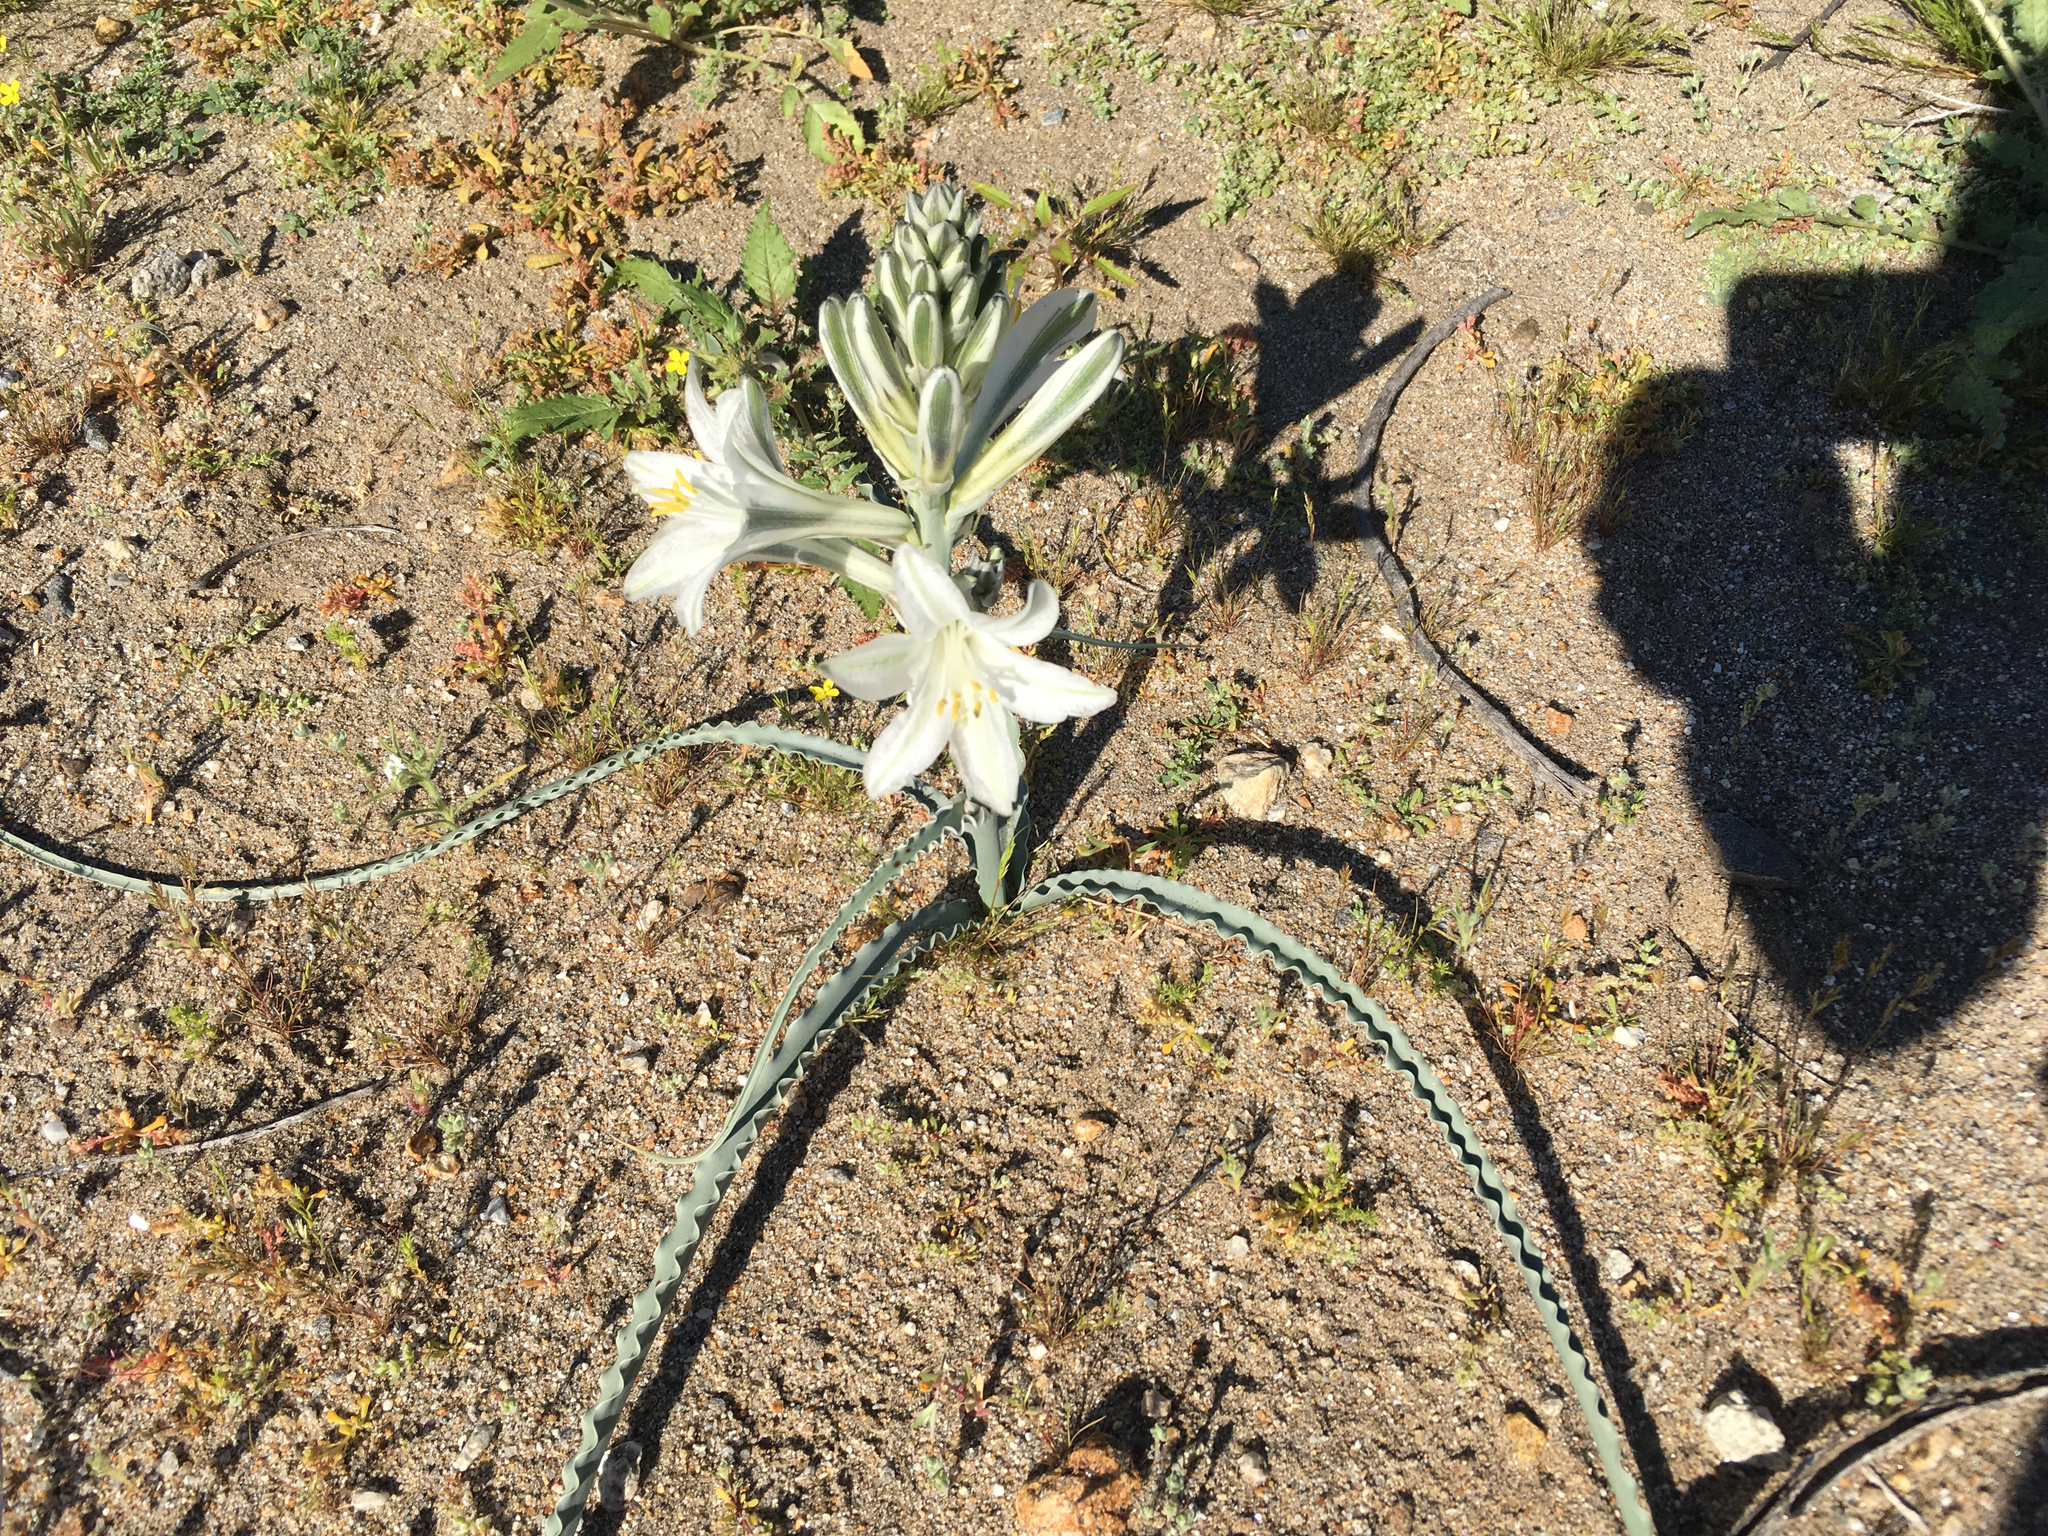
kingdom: Plantae
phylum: Tracheophyta
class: Liliopsida
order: Asparagales
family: Asparagaceae
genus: Hesperocallis
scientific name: Hesperocallis undulata
